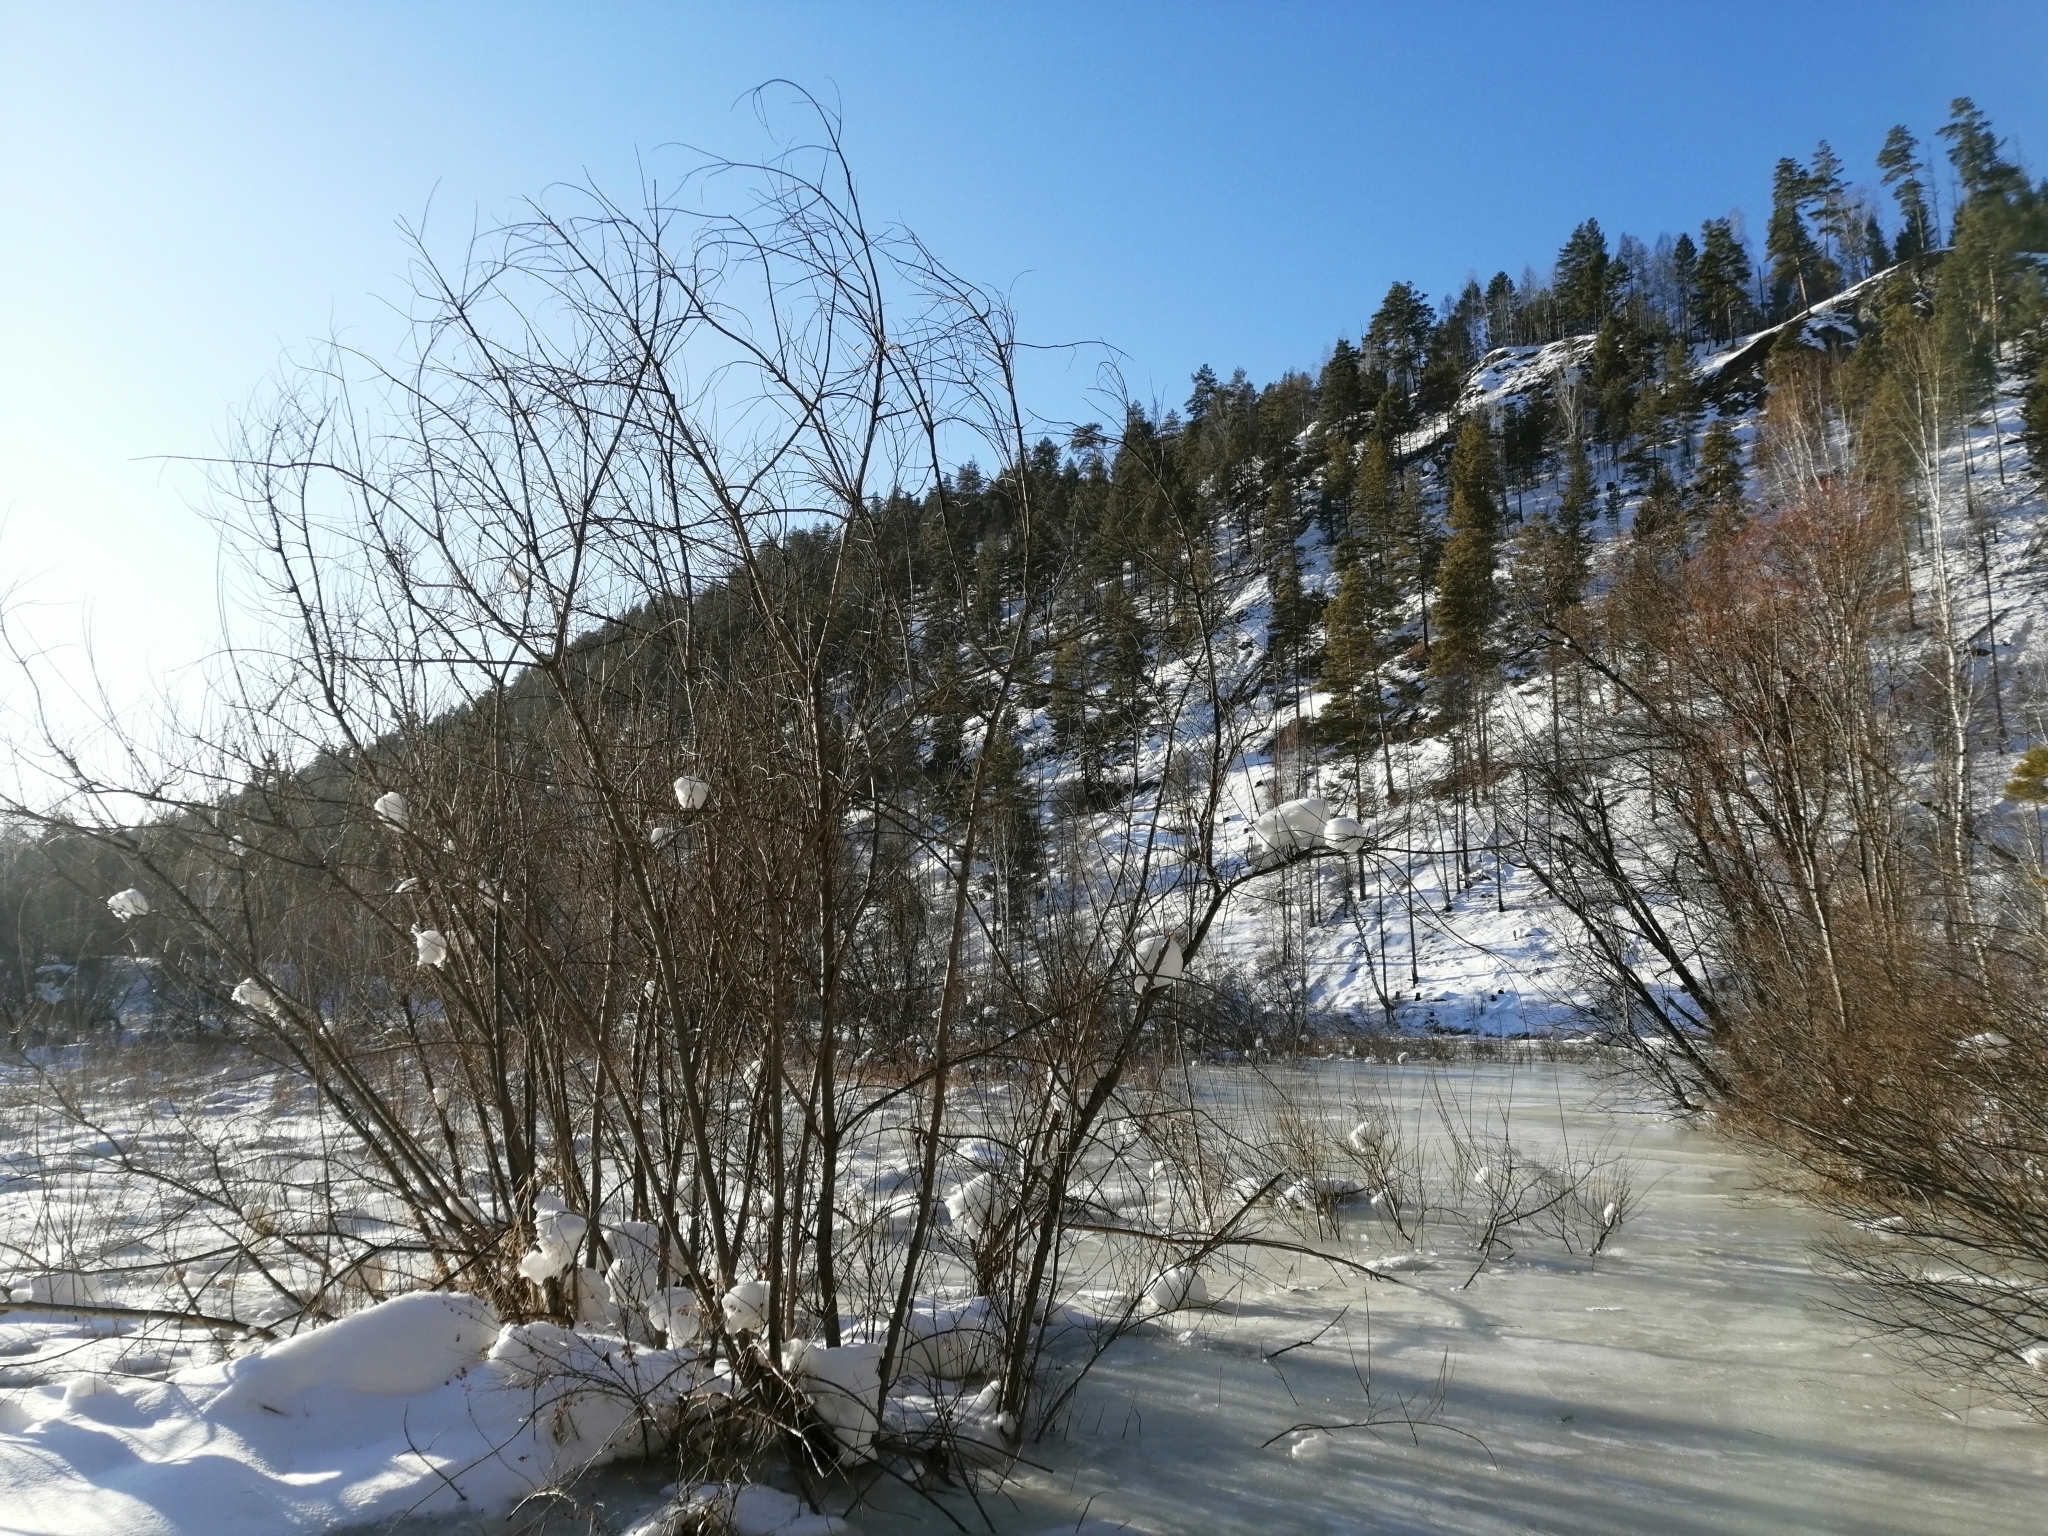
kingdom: Plantae
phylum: Tracheophyta
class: Pinopsida
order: Pinales
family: Pinaceae
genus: Pinus
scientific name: Pinus sylvestris
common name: Scots pine
